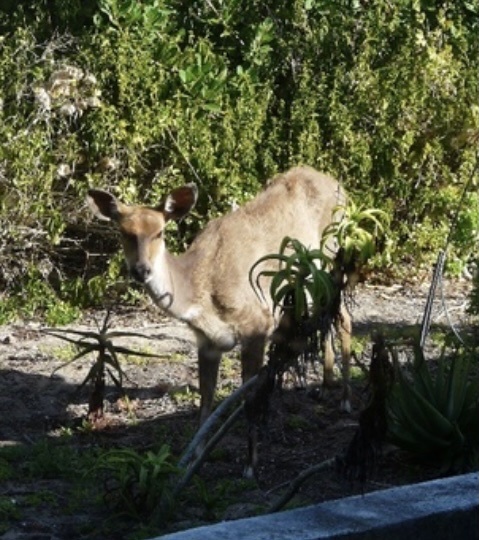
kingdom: Animalia
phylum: Chordata
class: Mammalia
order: Artiodactyla
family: Bovidae
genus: Tragelaphus
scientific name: Tragelaphus scriptus
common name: Bushbuck
